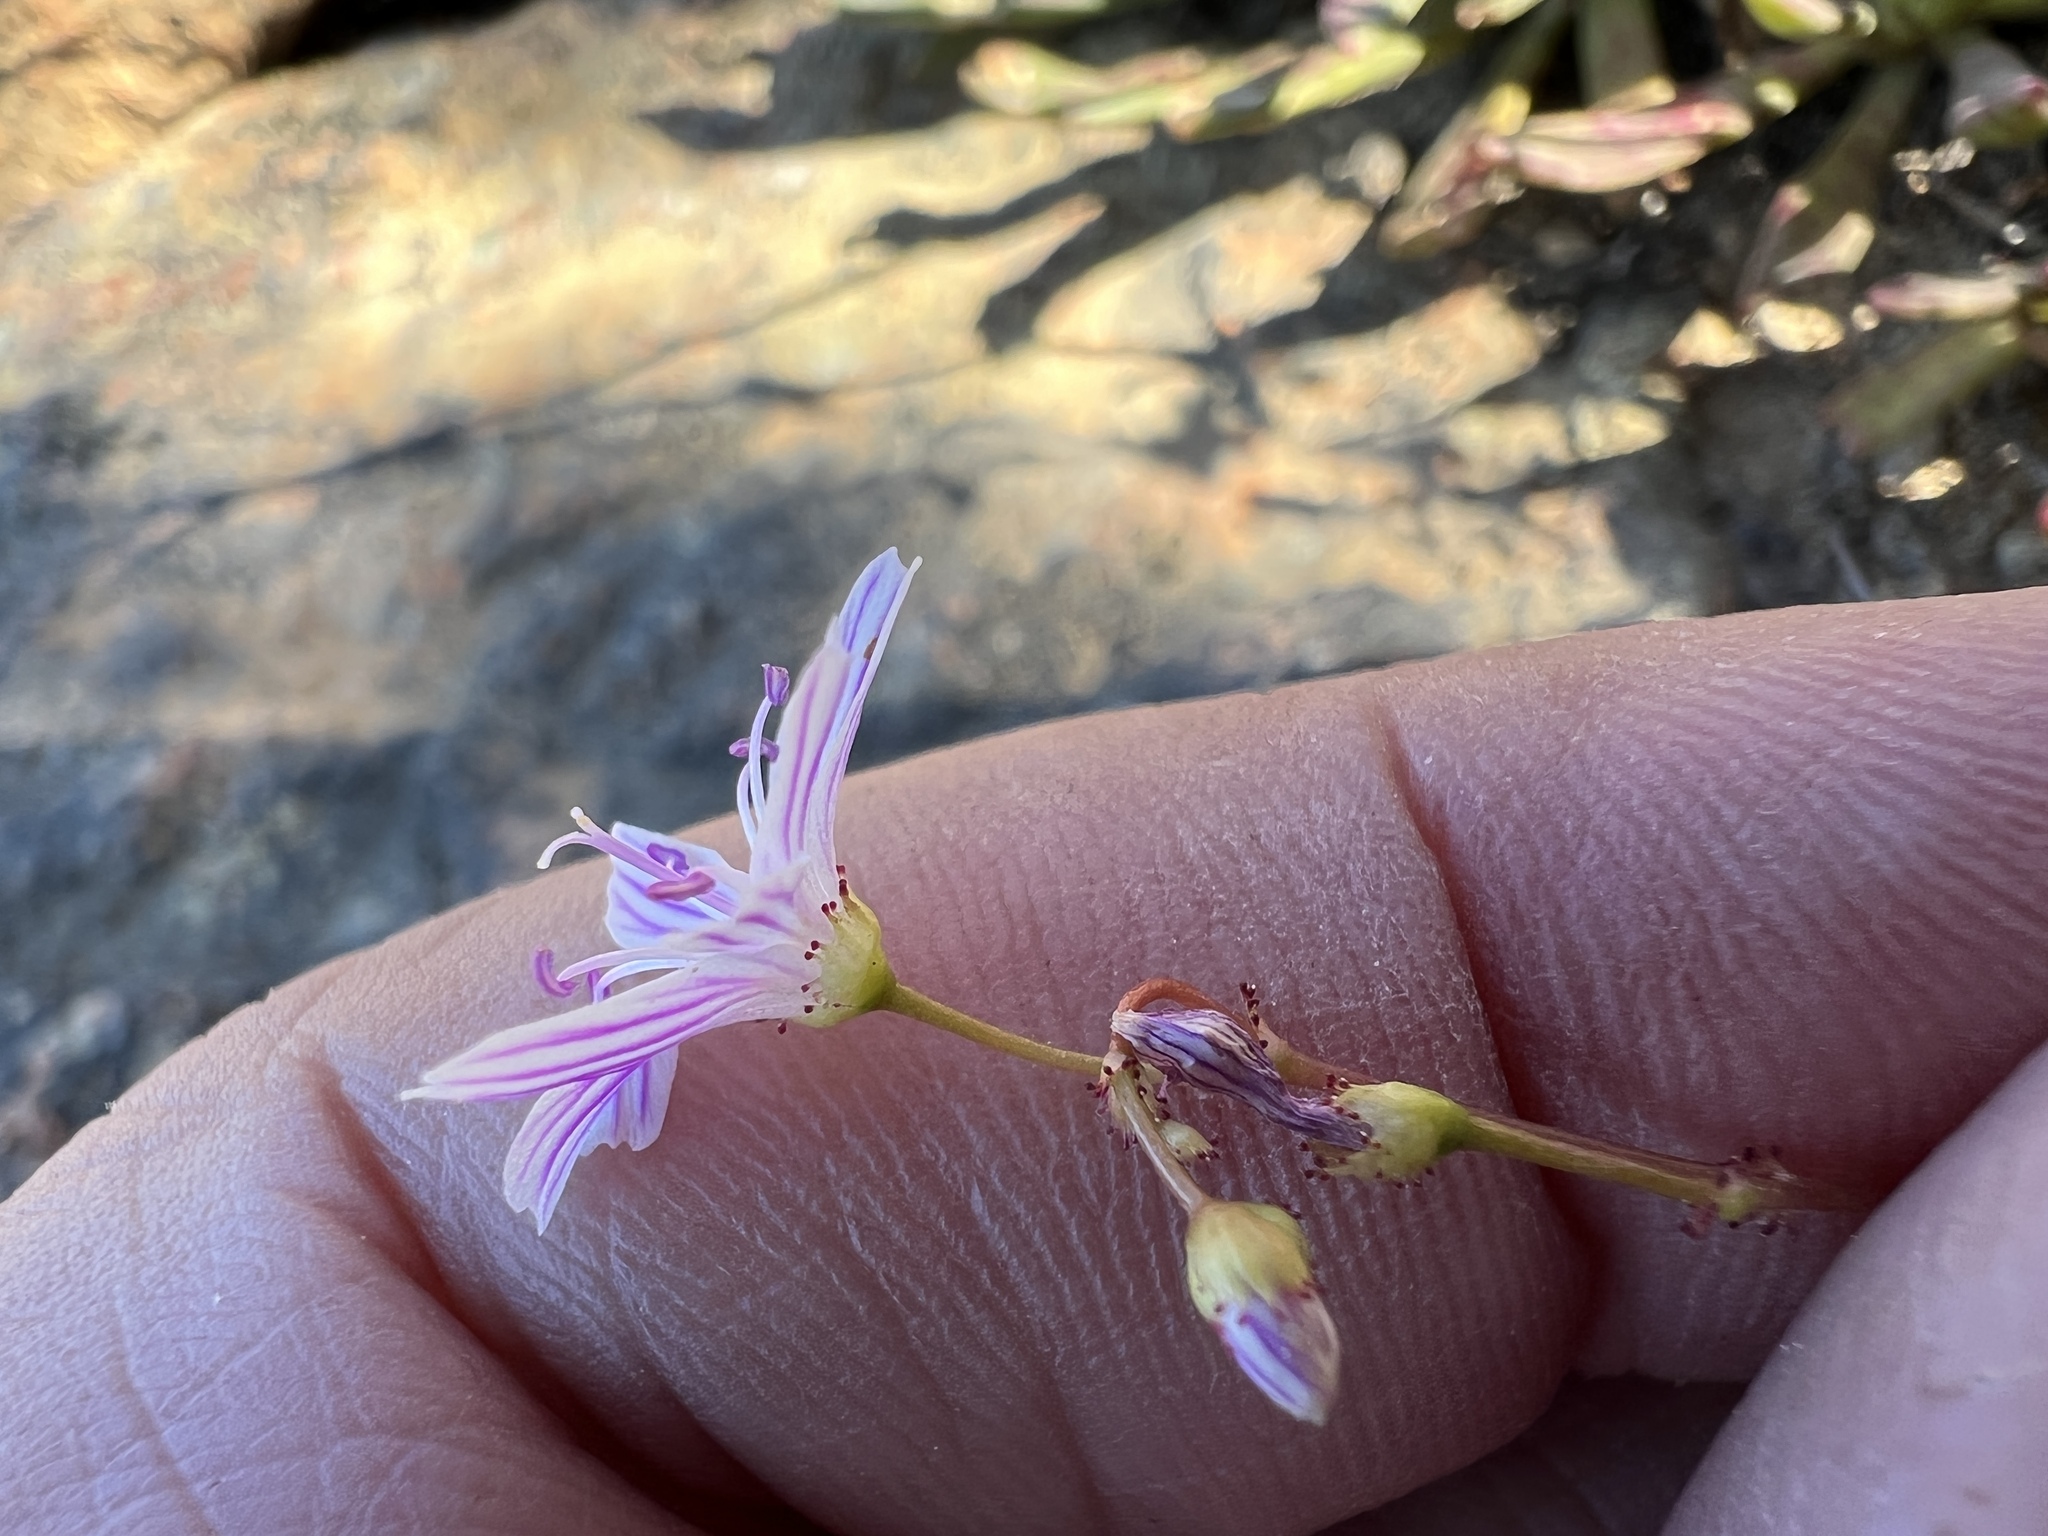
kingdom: Plantae
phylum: Tracheophyta
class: Magnoliopsida
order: Caryophyllales
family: Montiaceae
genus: Lewisia
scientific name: Lewisia columbiana
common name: Columbia lewisia
